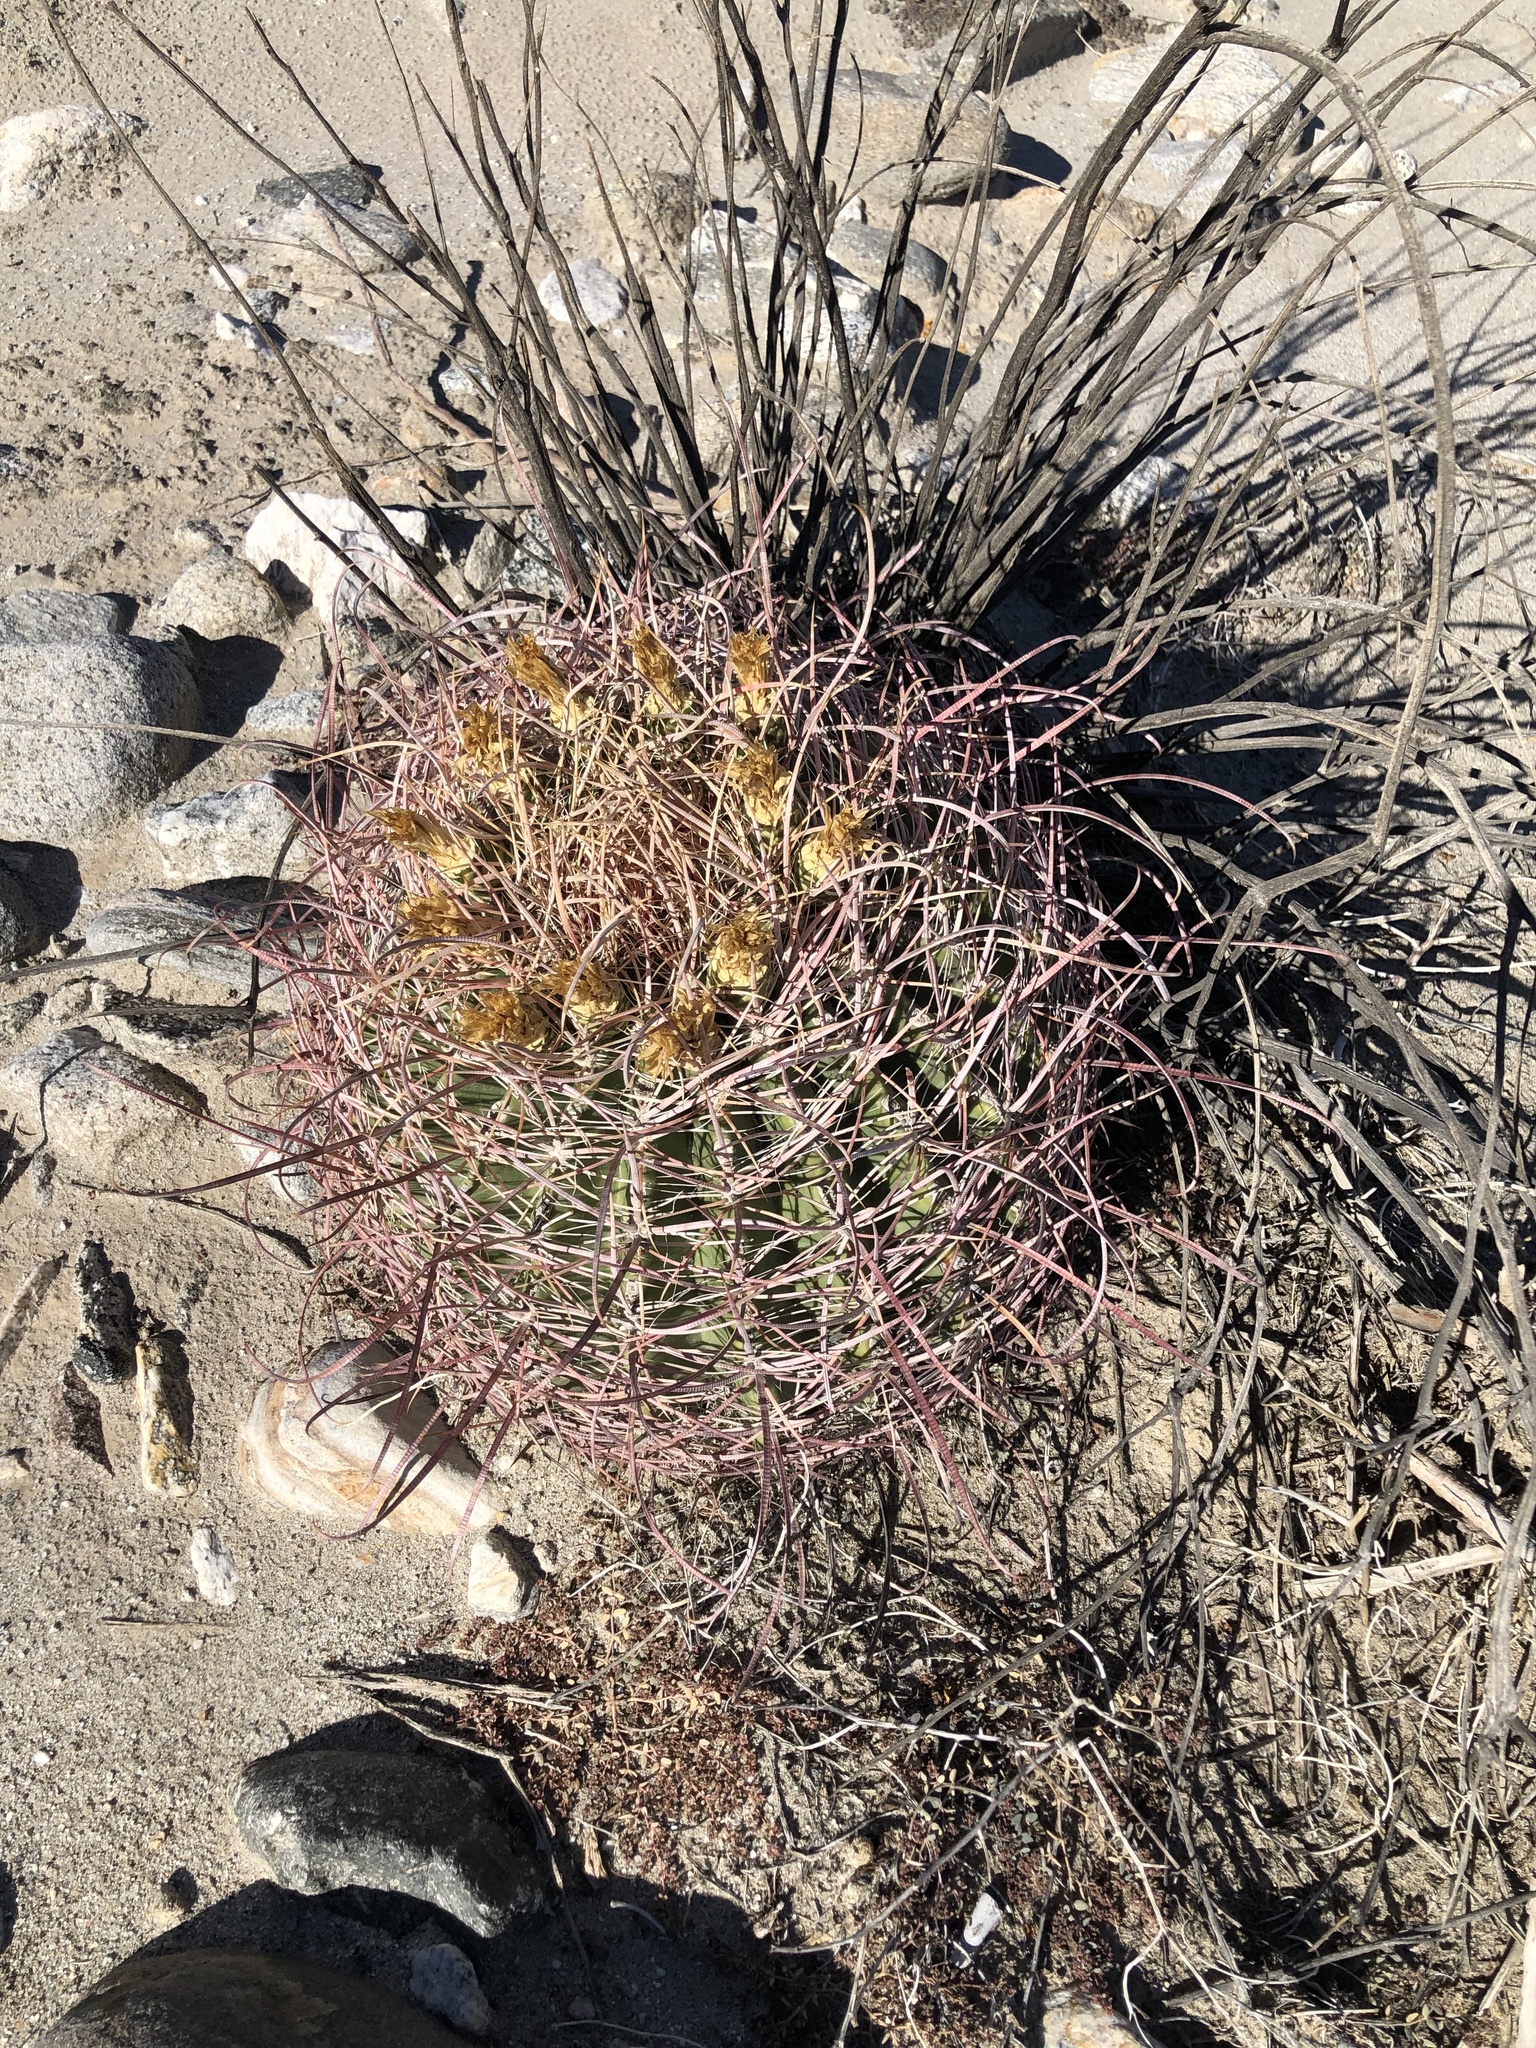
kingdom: Plantae
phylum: Tracheophyta
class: Magnoliopsida
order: Caryophyllales
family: Cactaceae
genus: Ferocactus
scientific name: Ferocactus cylindraceus
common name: California barrel cactus
